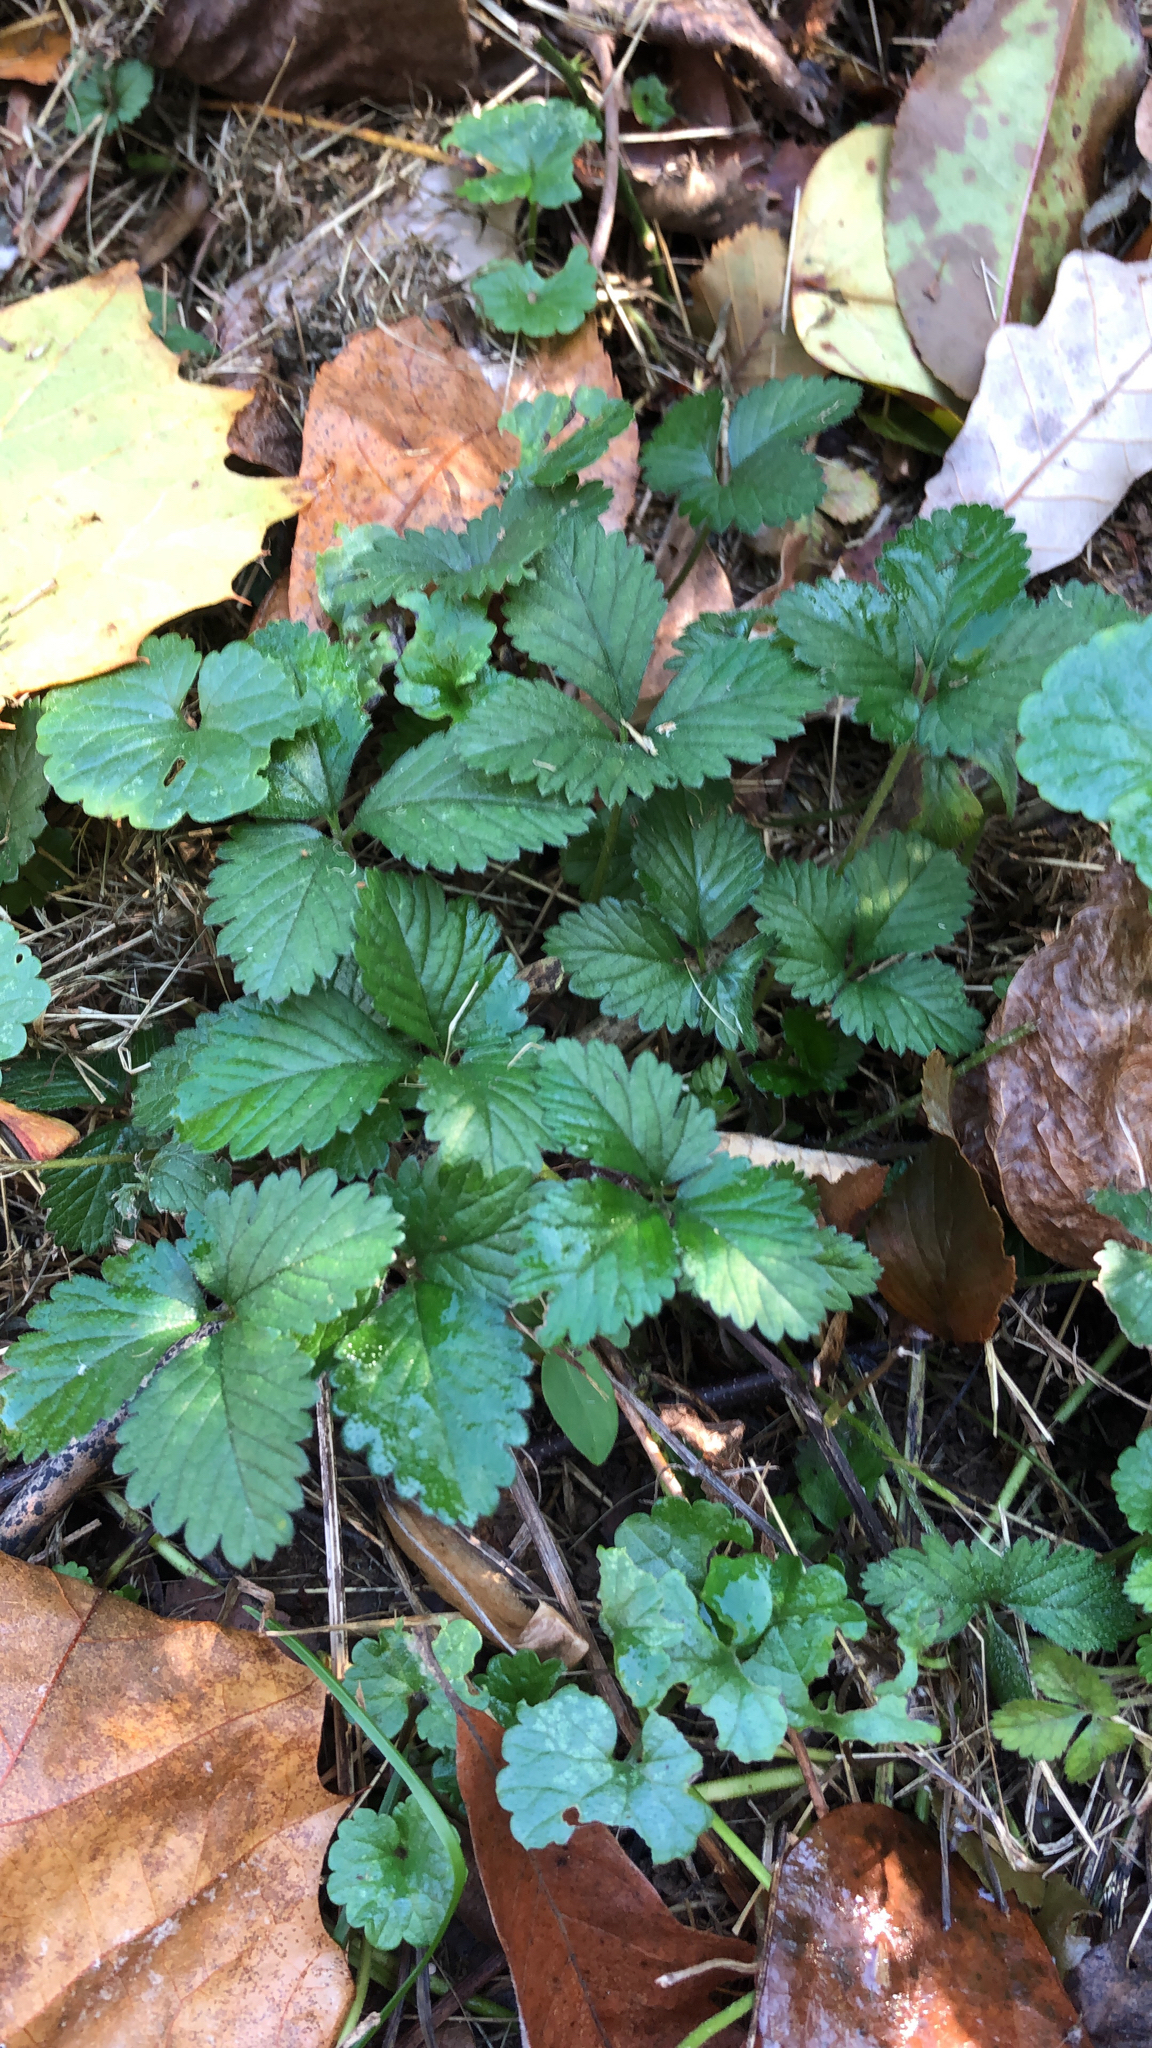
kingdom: Plantae
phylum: Tracheophyta
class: Magnoliopsida
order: Rosales
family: Rosaceae
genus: Potentilla
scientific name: Potentilla indica
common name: Yellow-flowered strawberry
